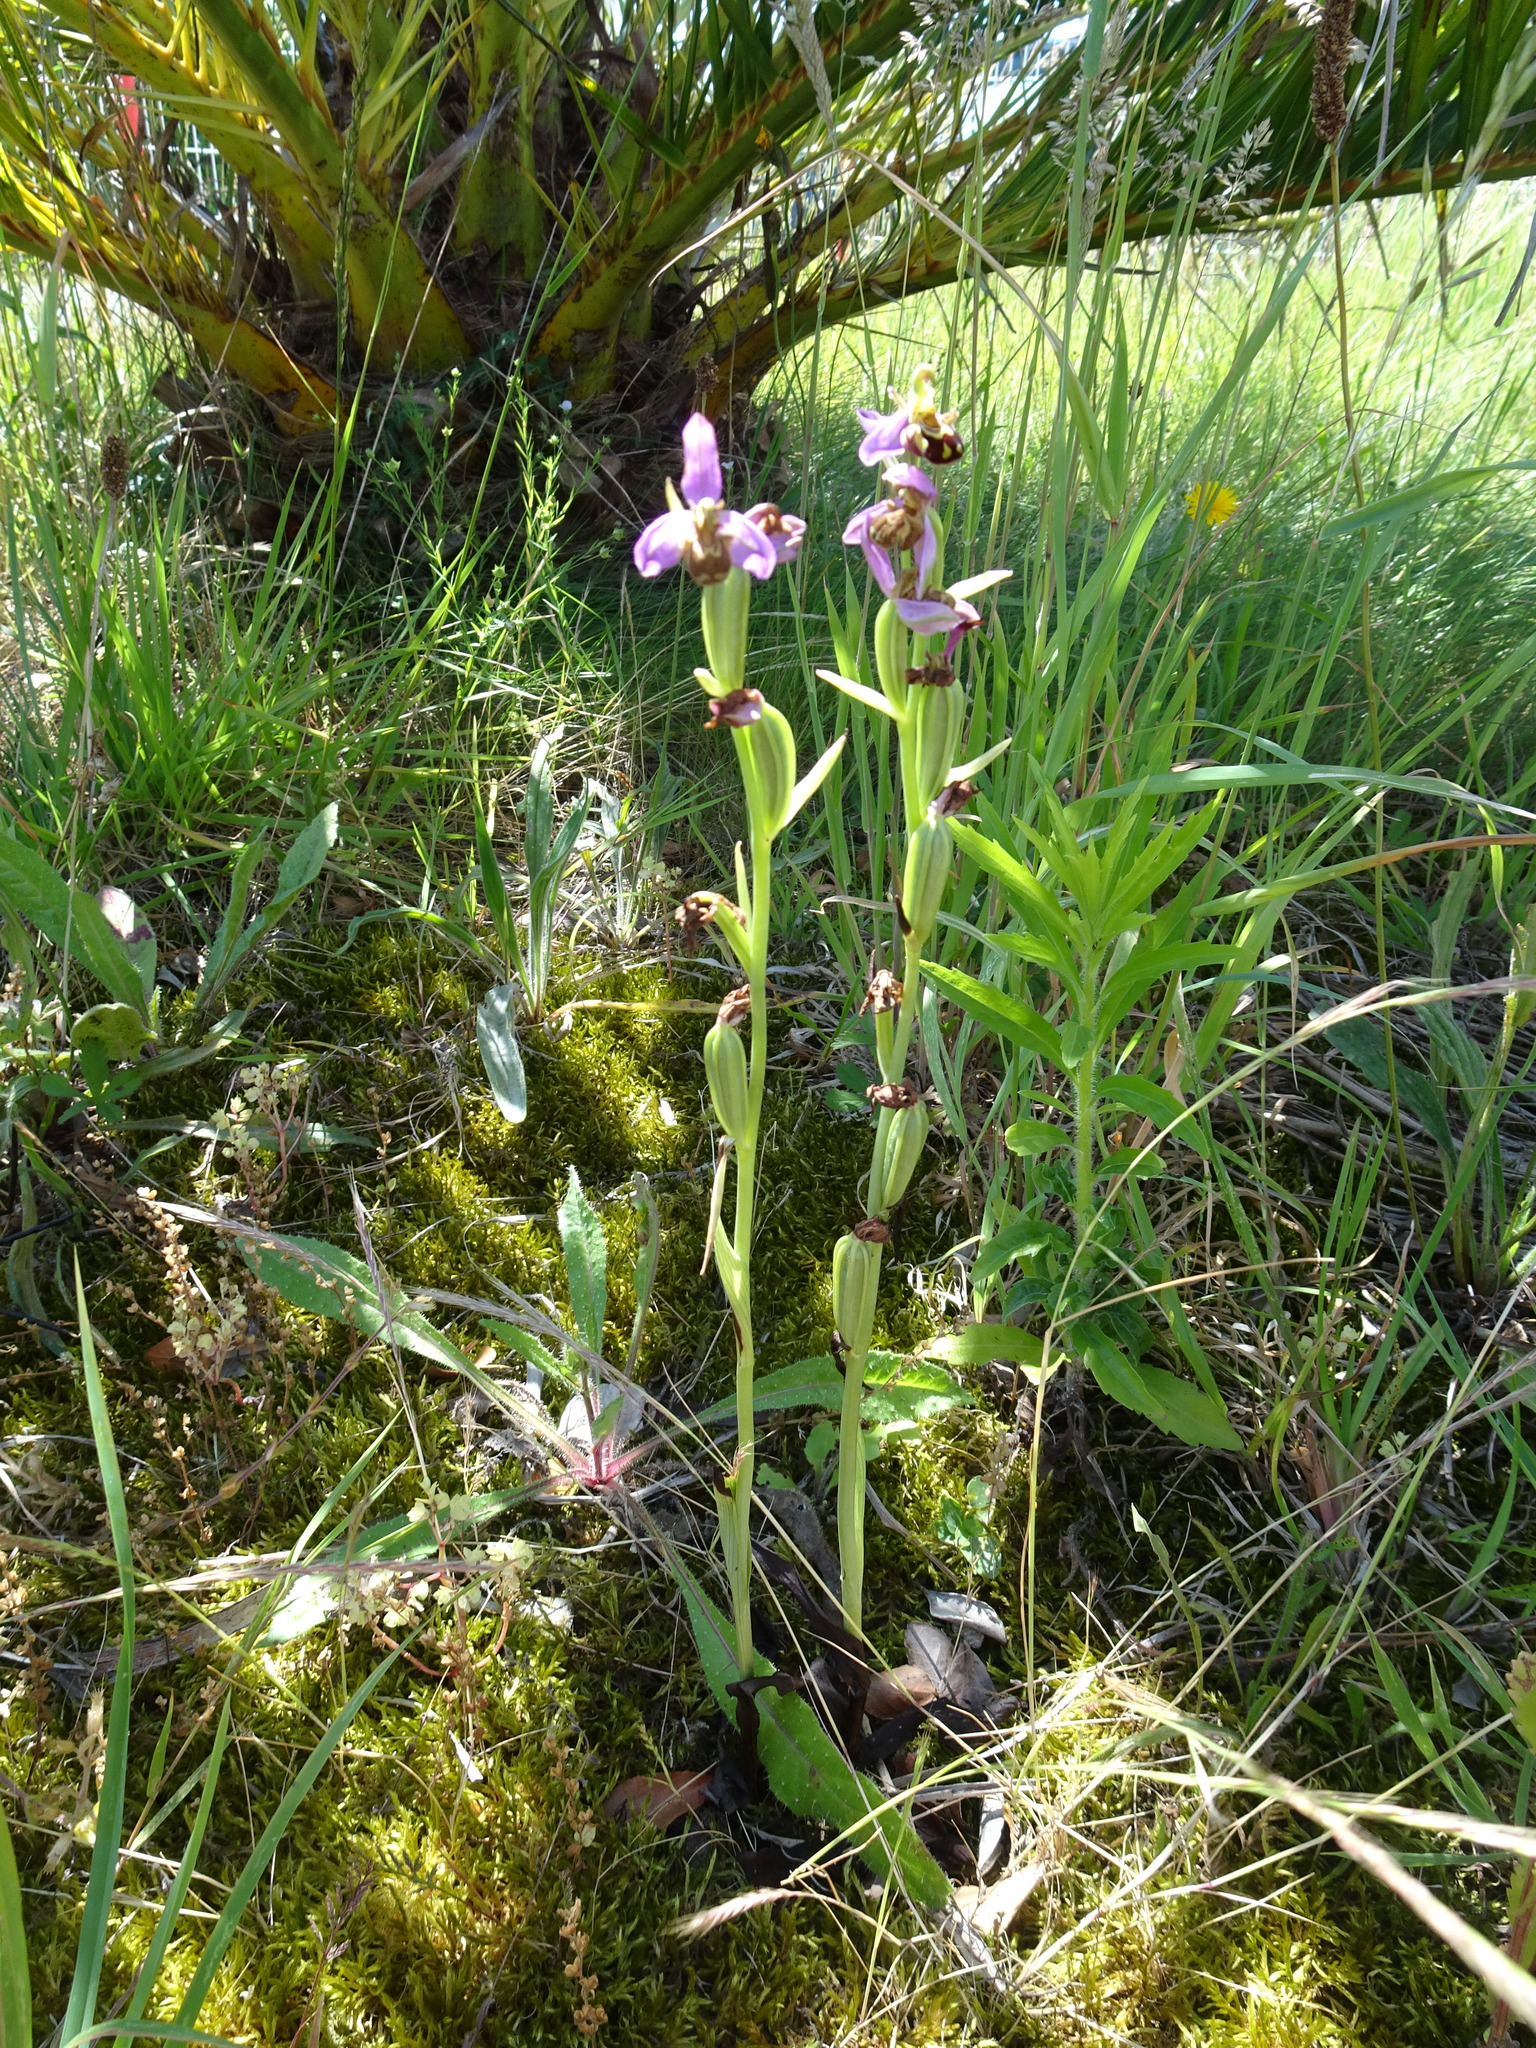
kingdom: Plantae
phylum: Tracheophyta
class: Liliopsida
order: Asparagales
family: Orchidaceae
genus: Ophrys
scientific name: Ophrys apifera
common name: Bee orchid
